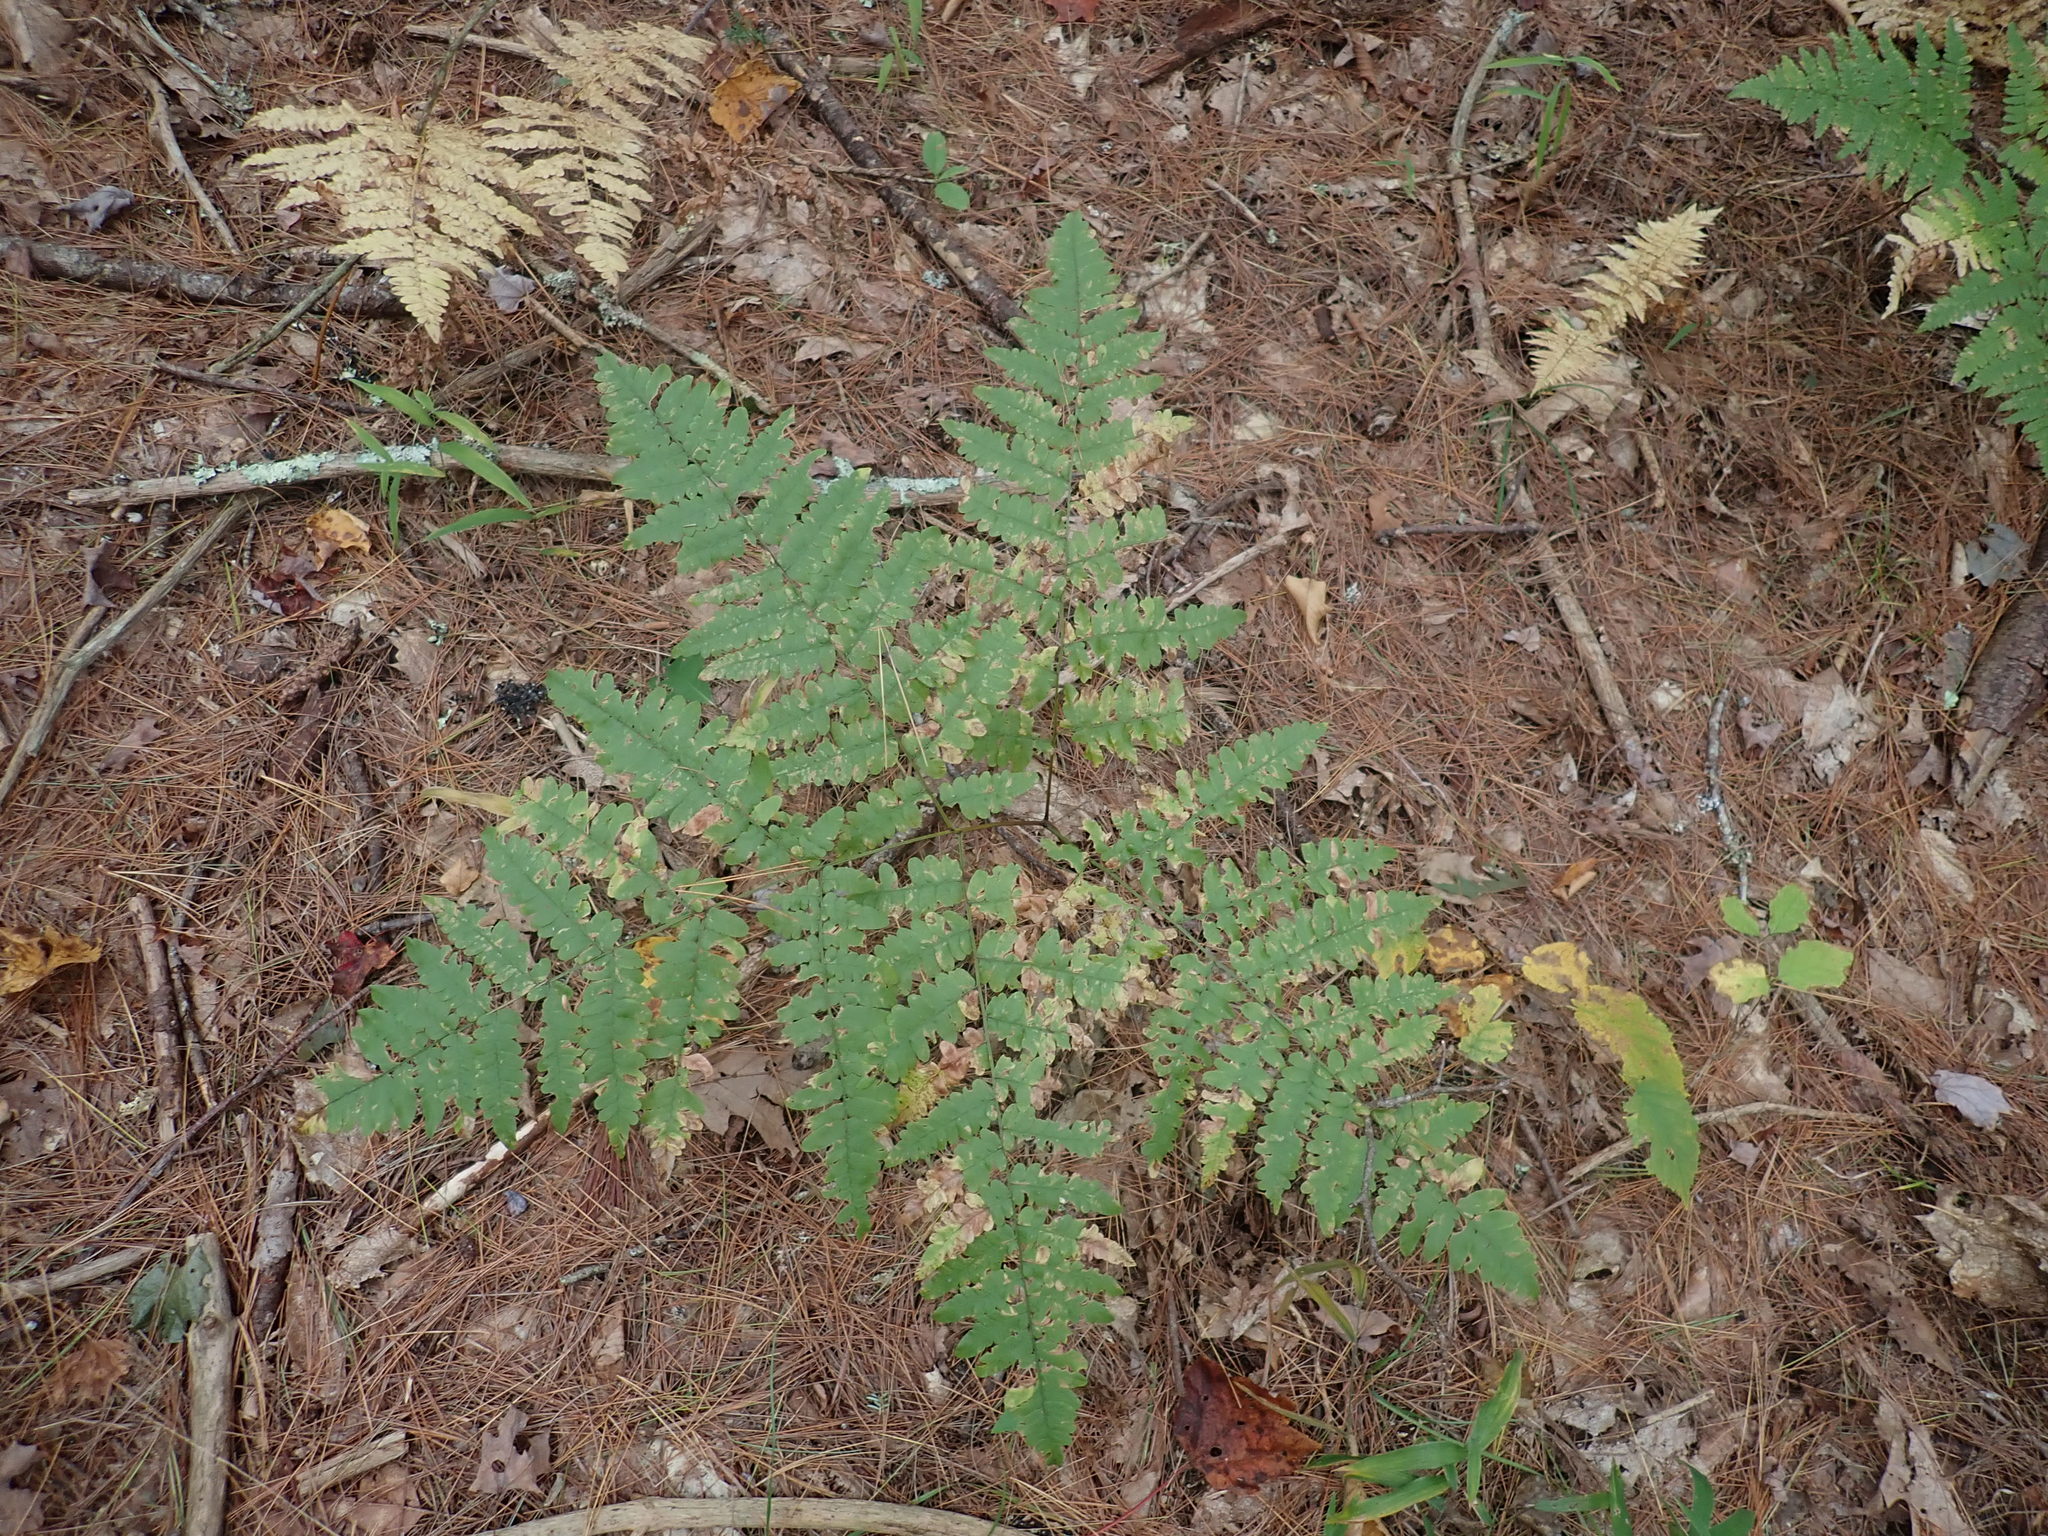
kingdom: Plantae
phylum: Tracheophyta
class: Polypodiopsida
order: Polypodiales
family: Dennstaedtiaceae
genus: Pteridium
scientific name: Pteridium aquilinum
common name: Bracken
